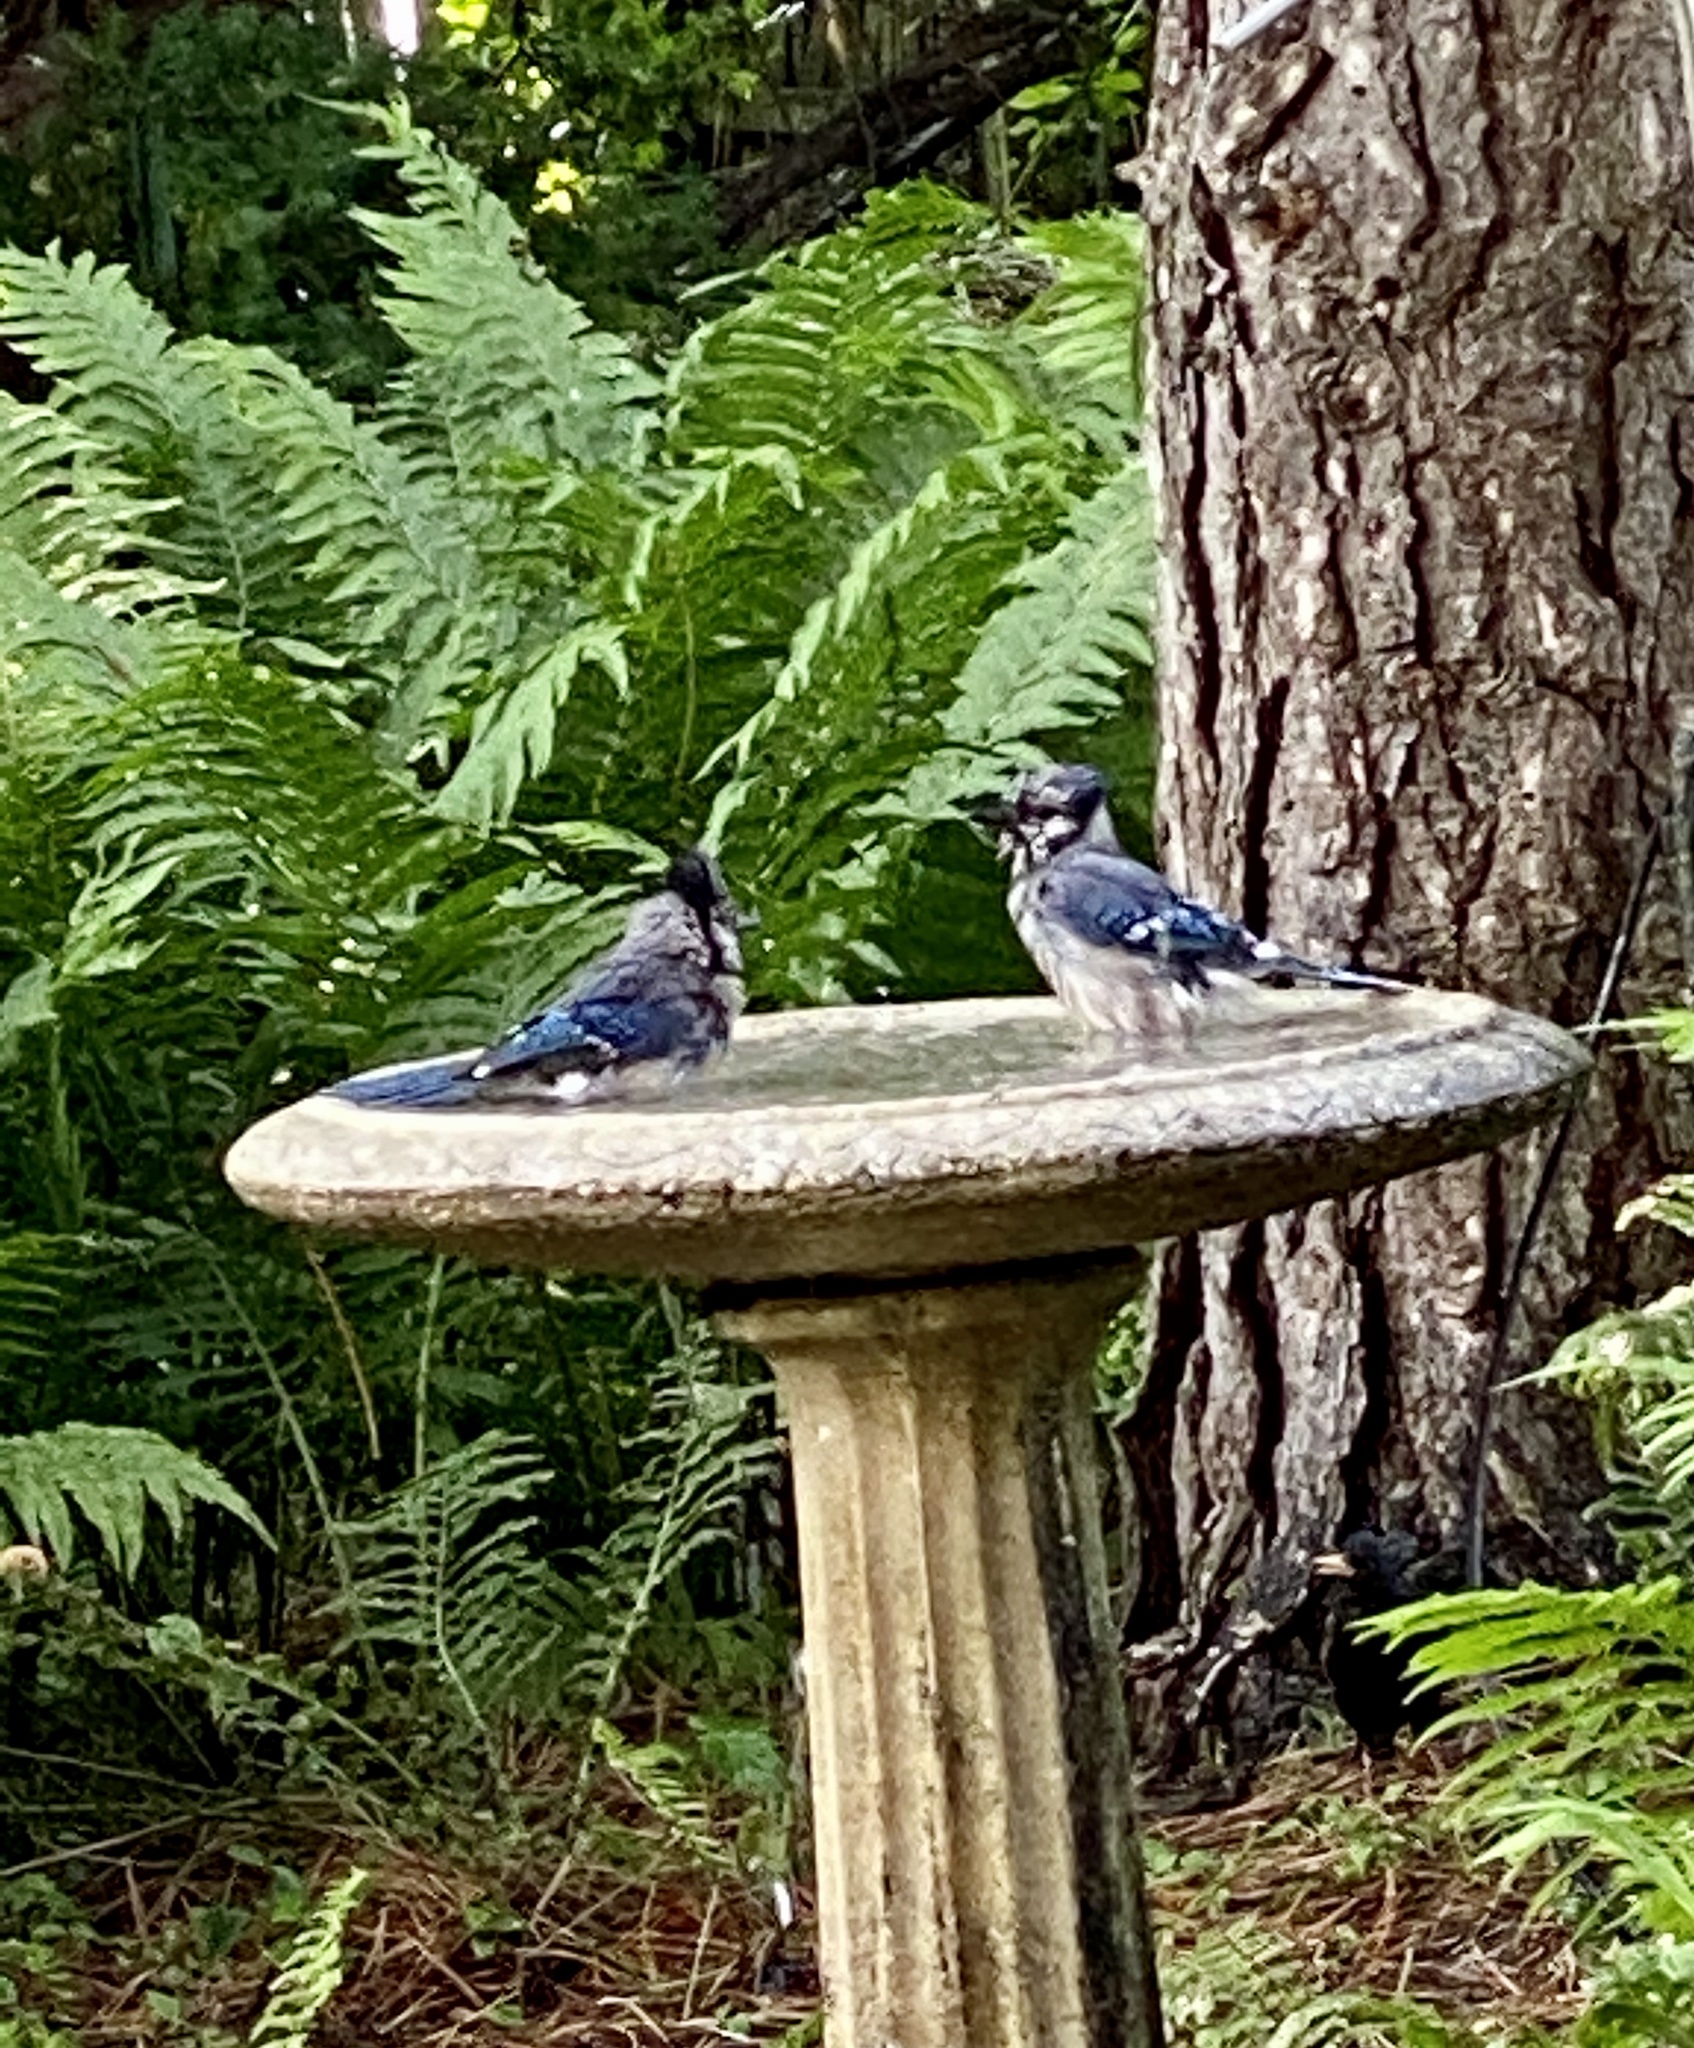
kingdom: Animalia
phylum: Chordata
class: Aves
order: Passeriformes
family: Corvidae
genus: Cyanocitta
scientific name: Cyanocitta cristata
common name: Blue jay
